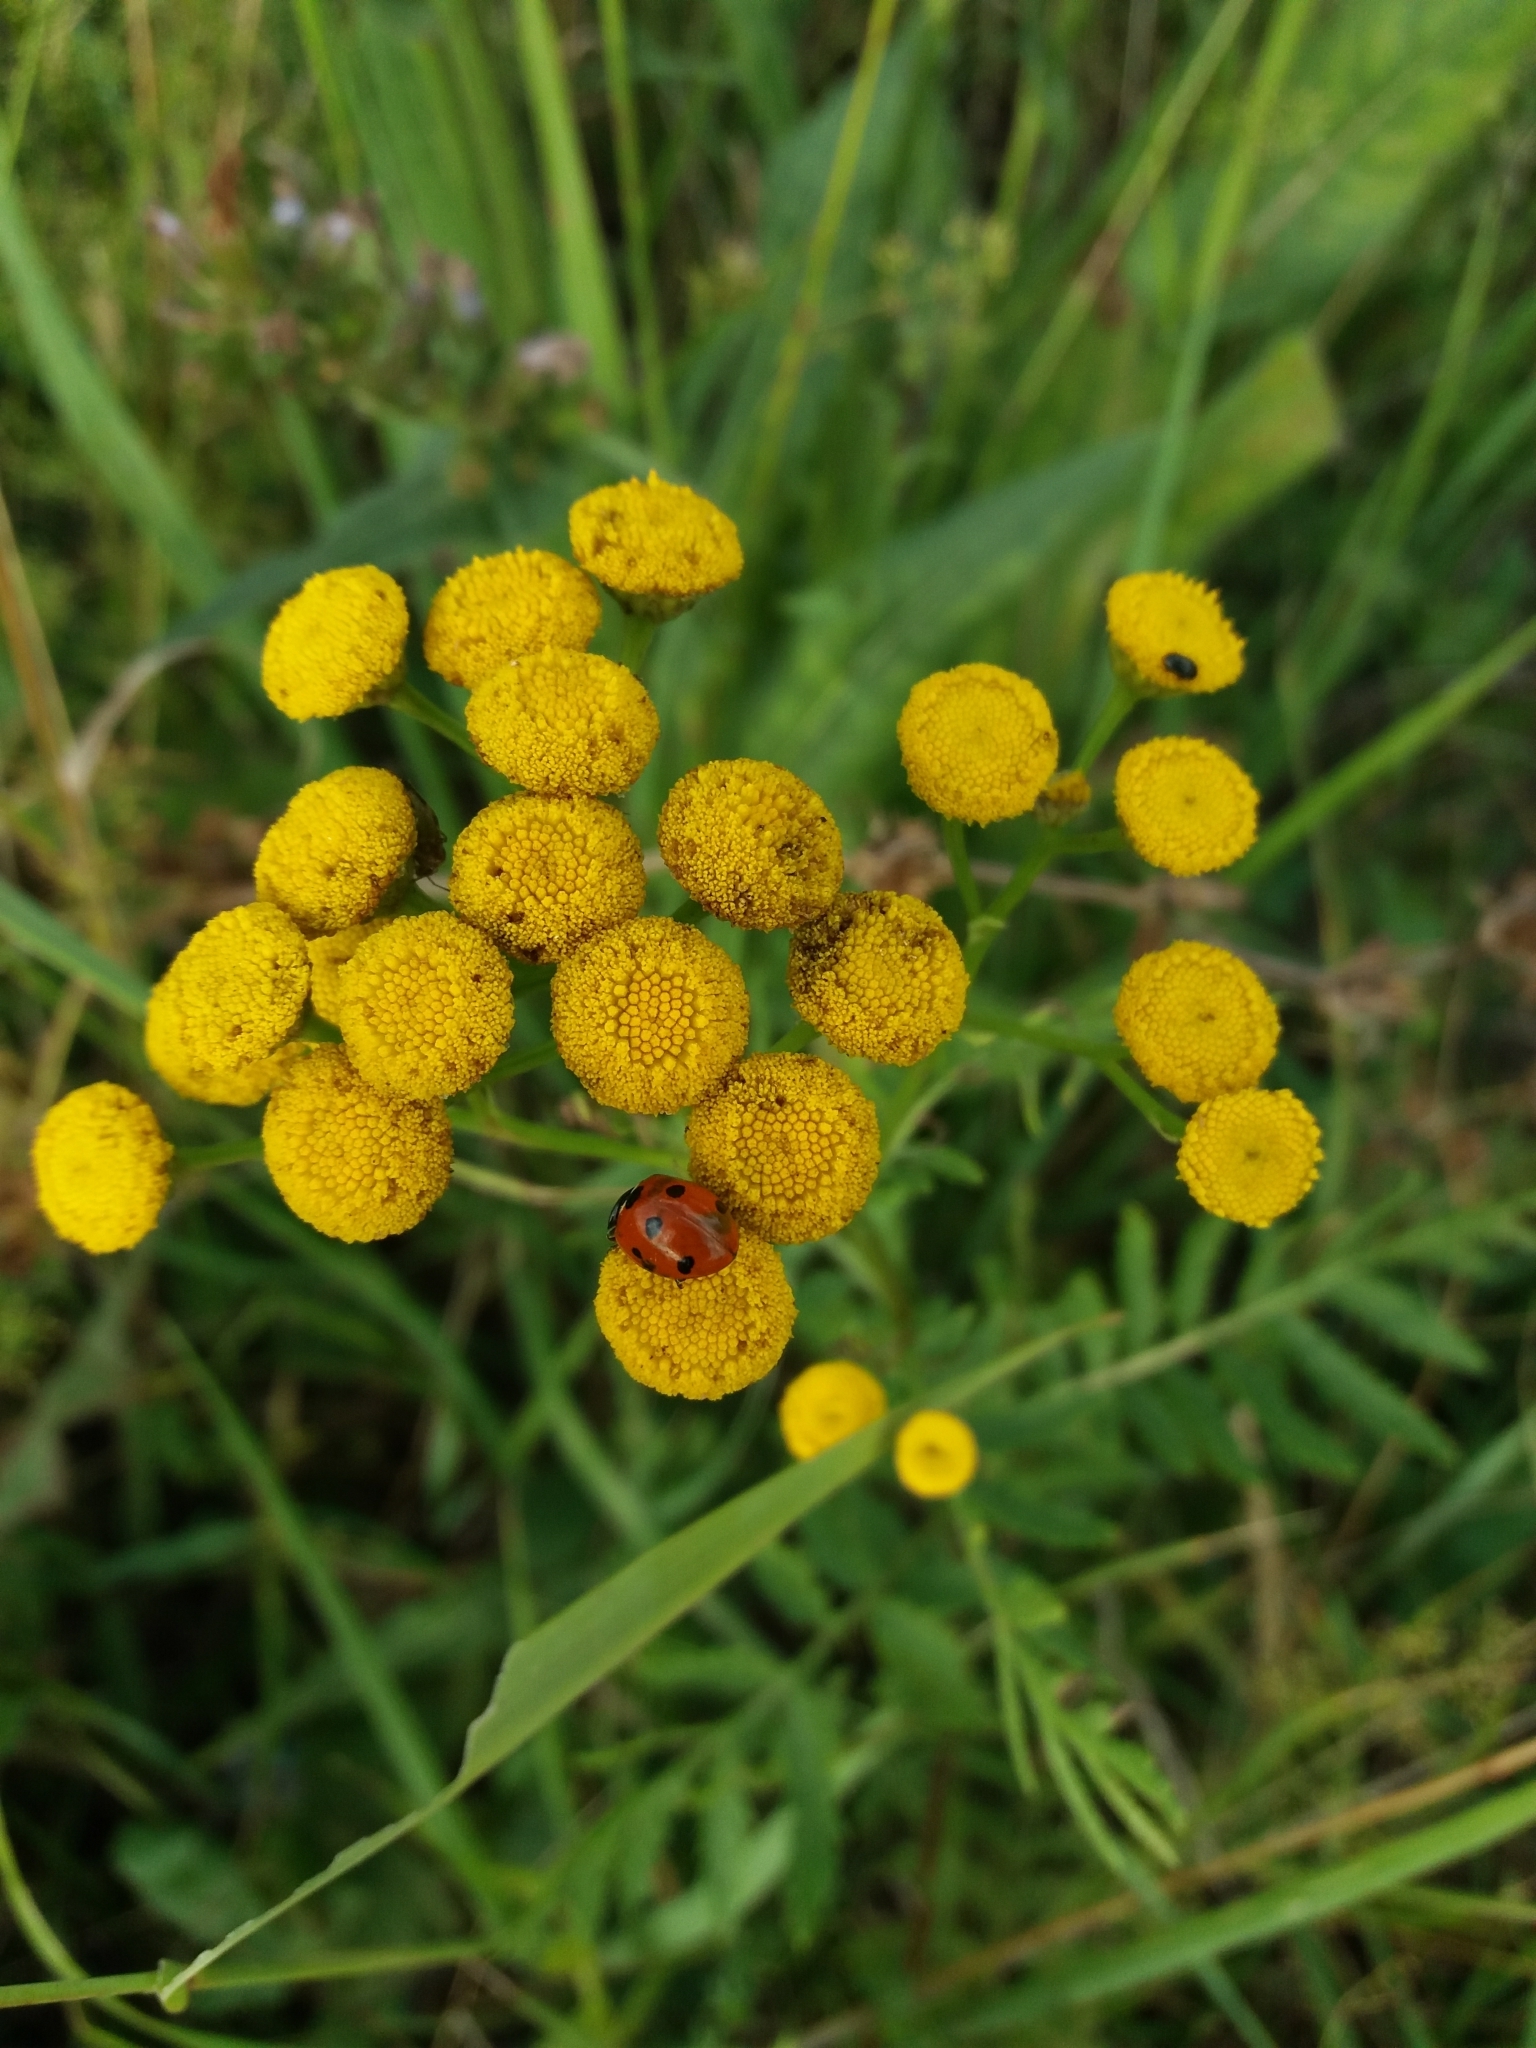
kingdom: Animalia
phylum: Arthropoda
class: Insecta
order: Coleoptera
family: Coccinellidae
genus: Coccinella
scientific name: Coccinella septempunctata
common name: Sevenspotted lady beetle
